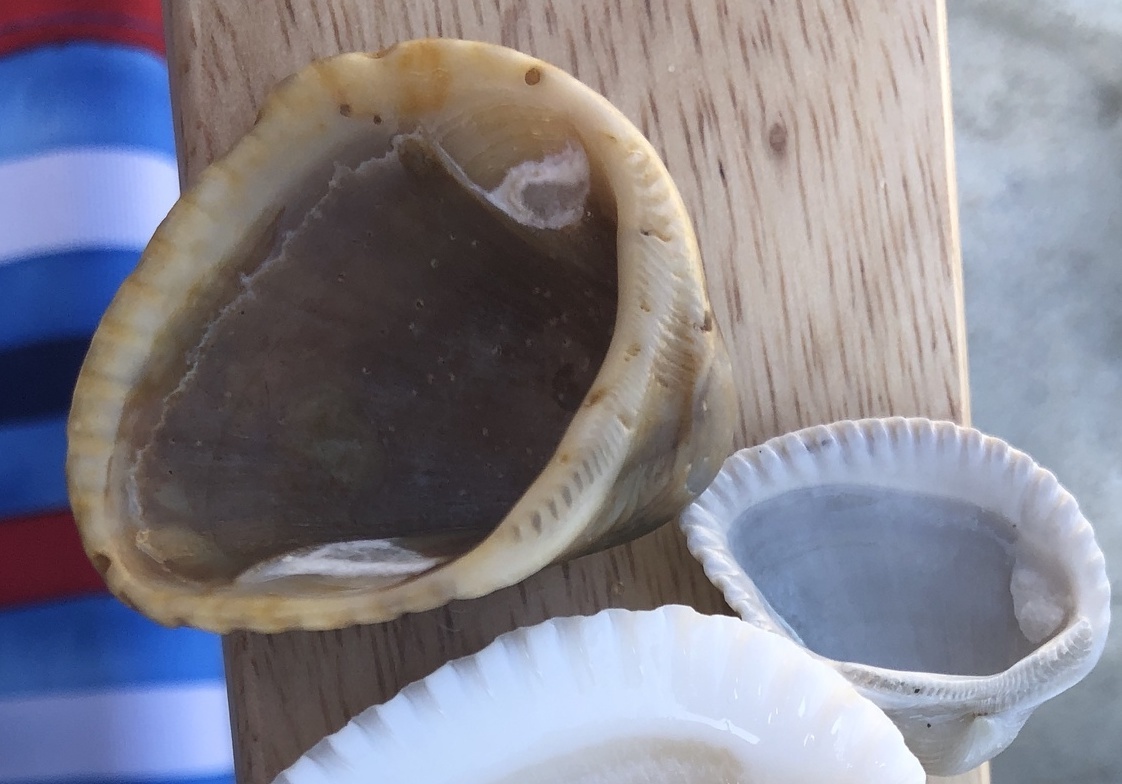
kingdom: Animalia
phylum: Mollusca
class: Bivalvia
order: Arcida
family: Noetiidae
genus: Noetia
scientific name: Noetia ponderosa
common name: Ponderous ark
